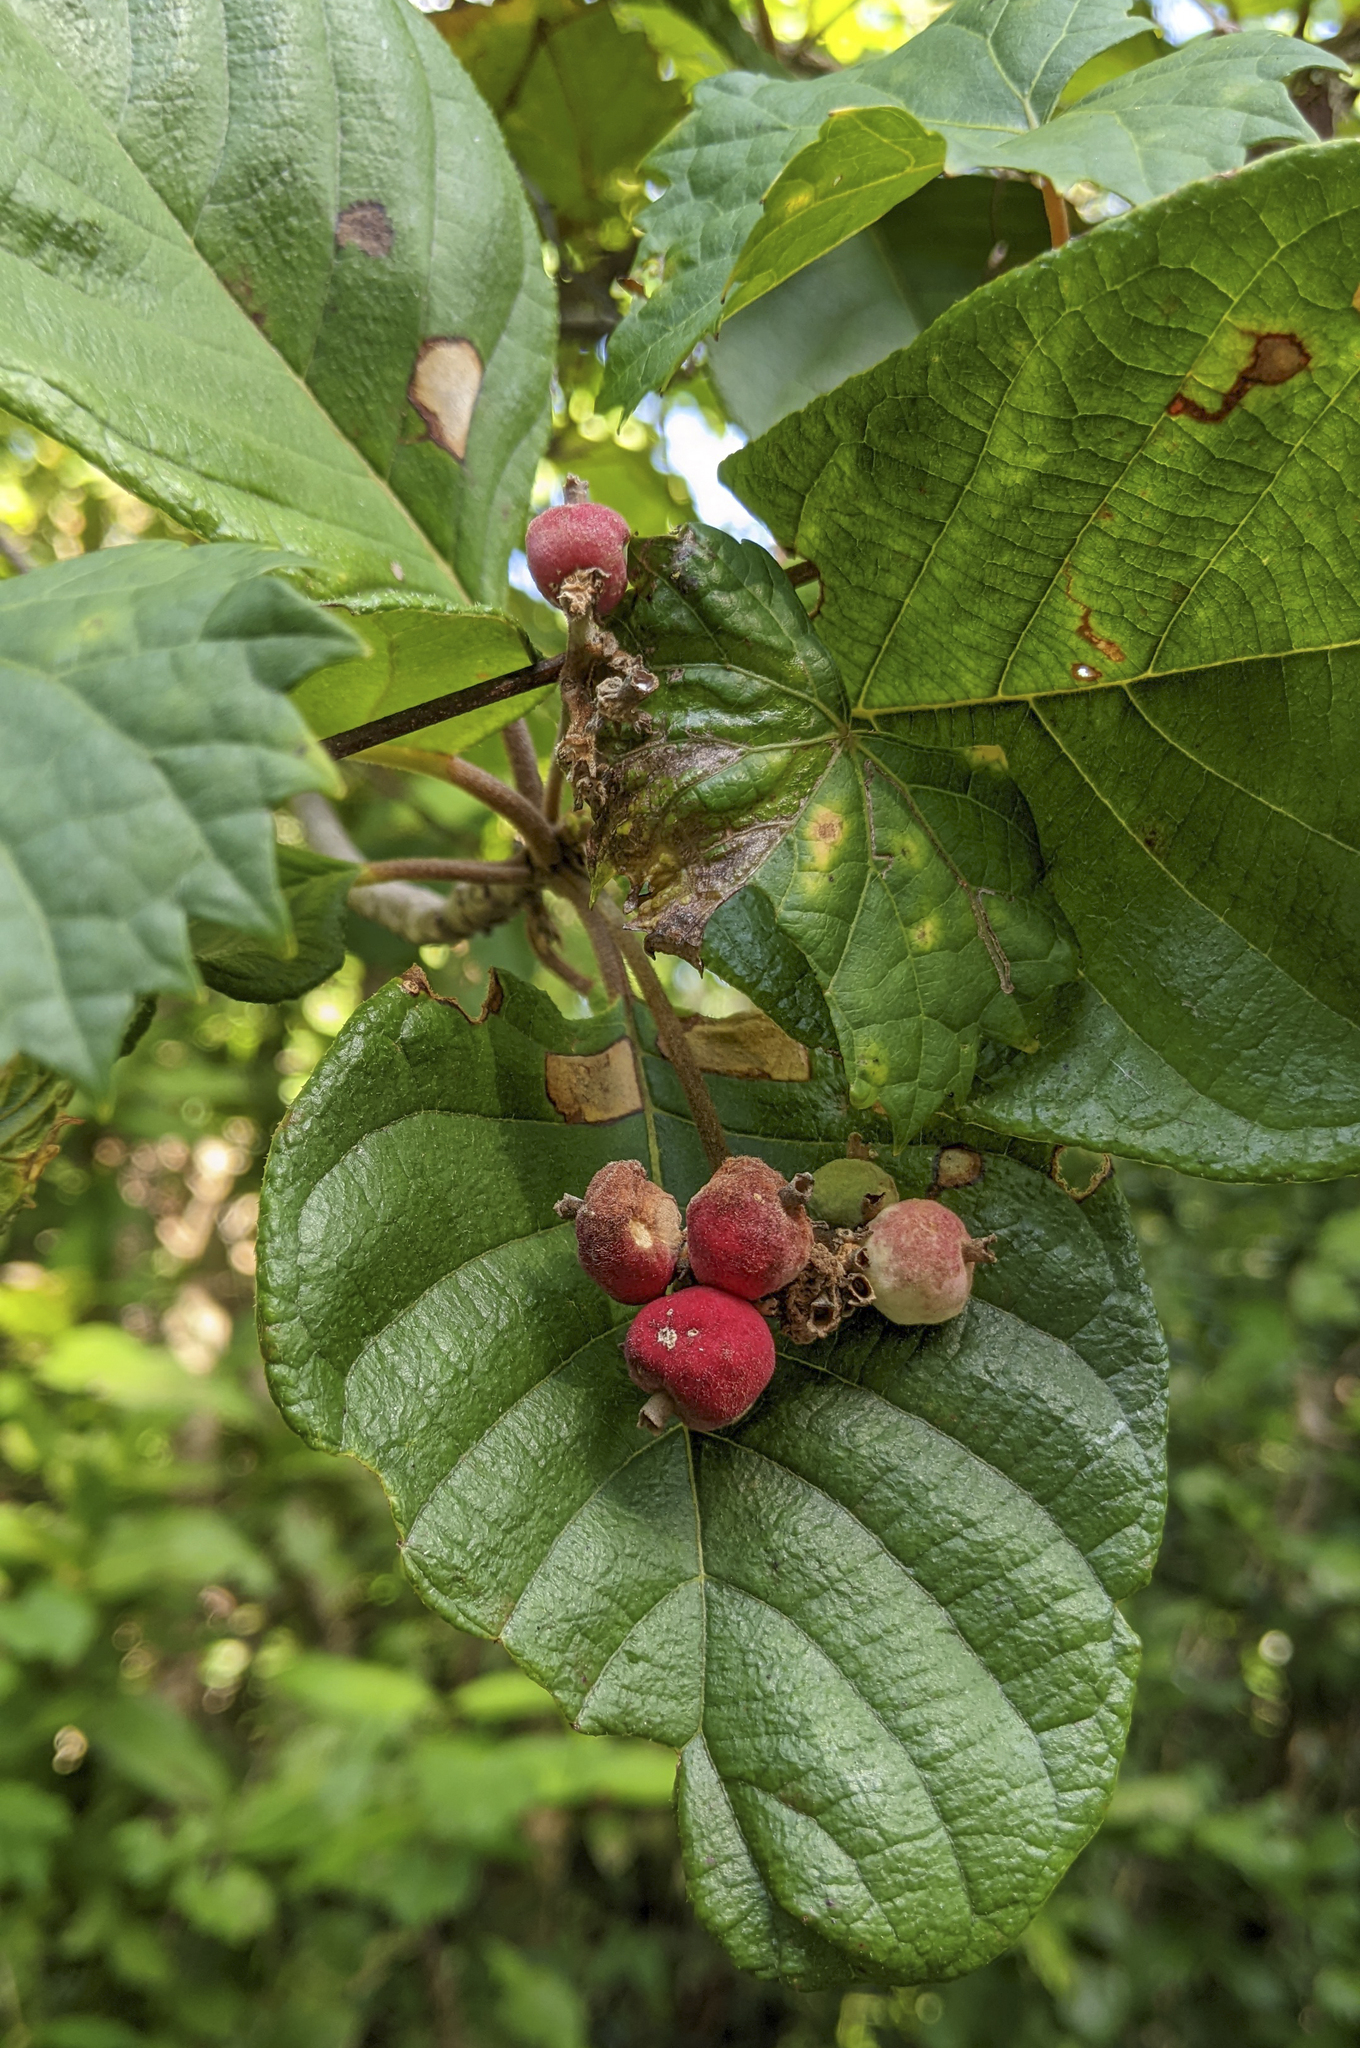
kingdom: Plantae
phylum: Tracheophyta
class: Magnoliopsida
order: Gentianales
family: Rubiaceae
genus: Guettarda
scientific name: Guettarda scabra
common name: Pigeon bay
